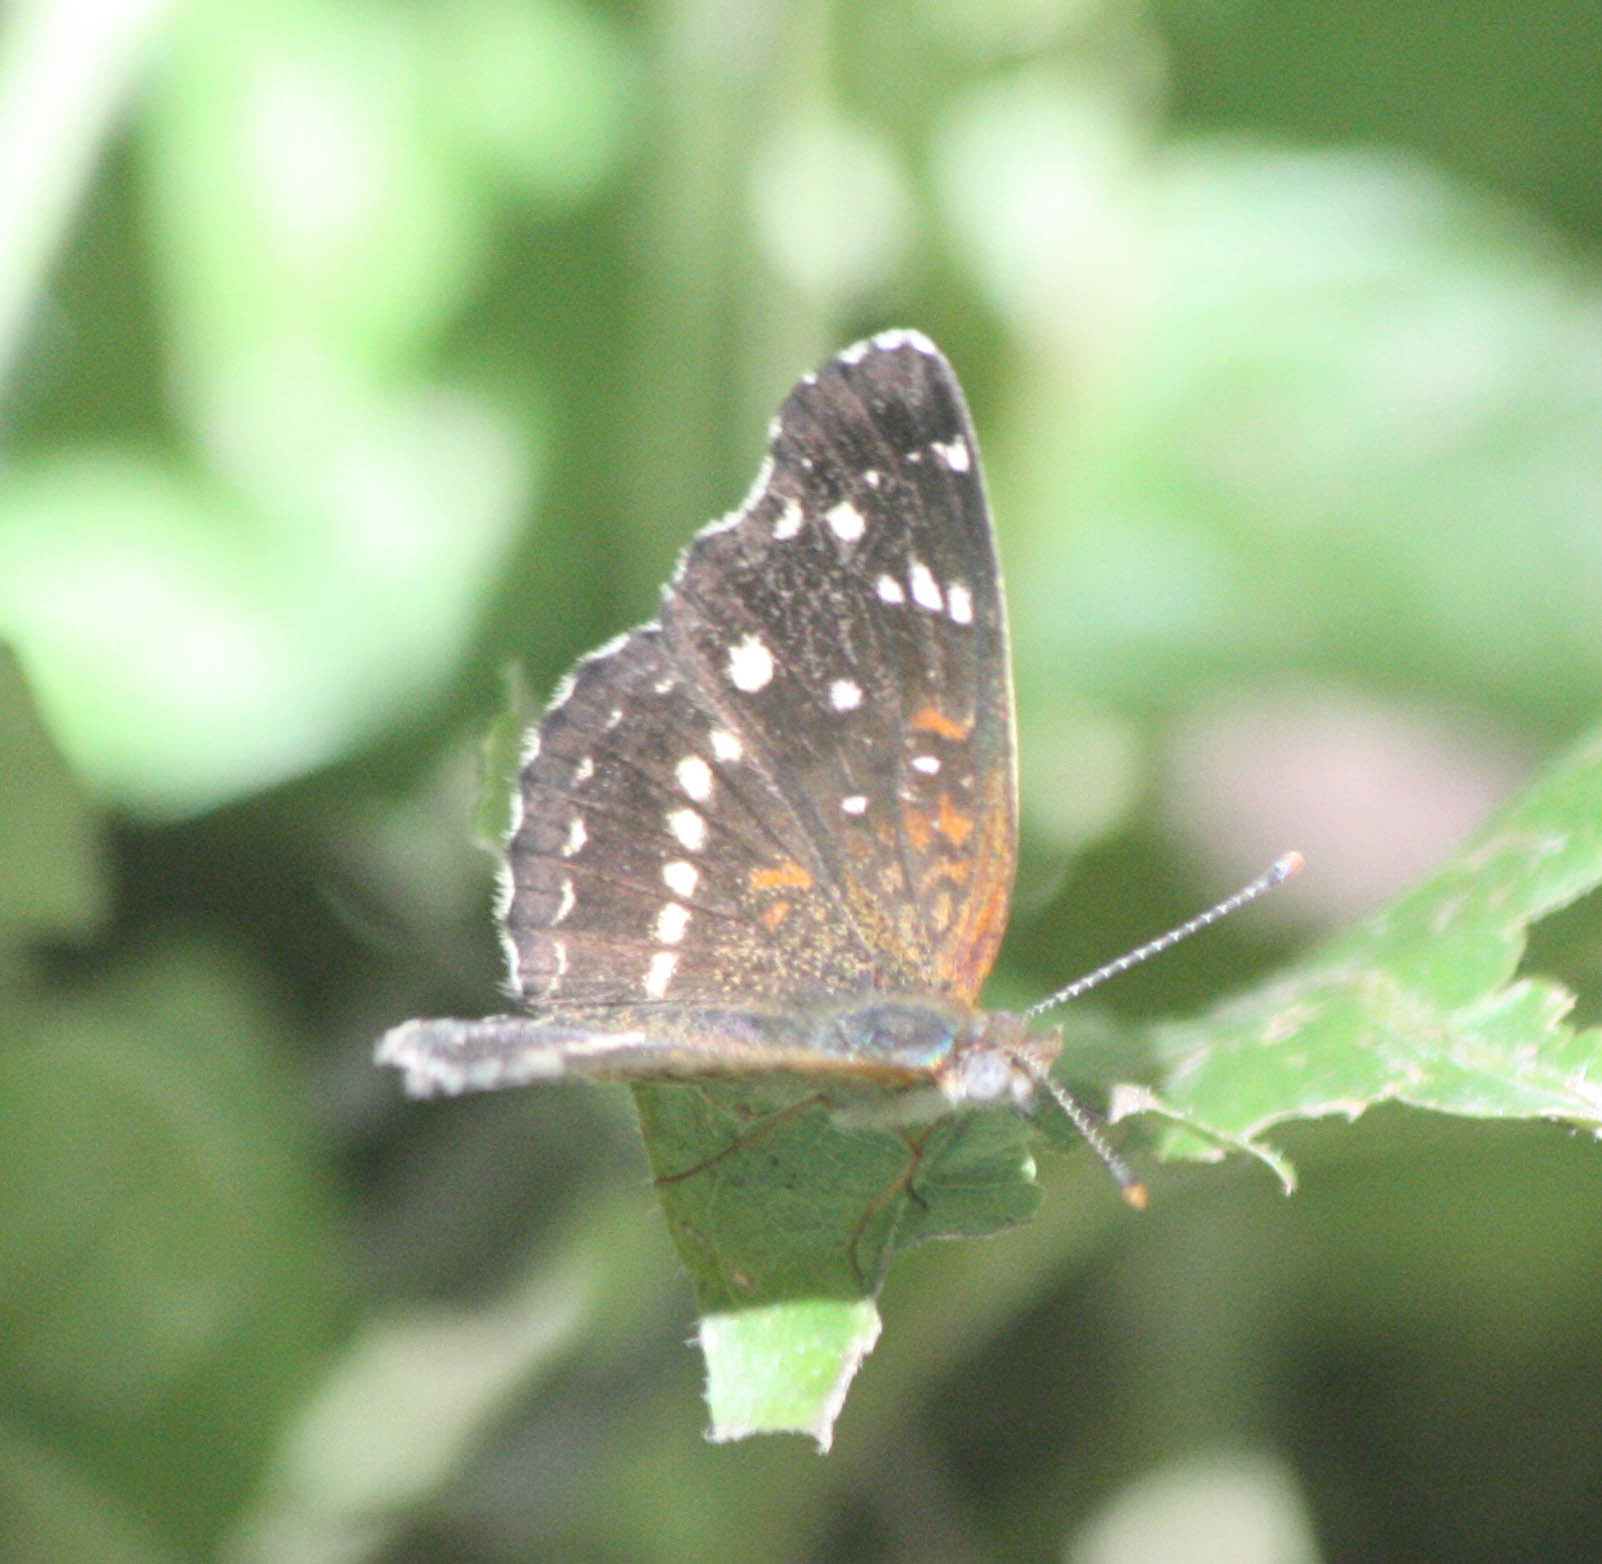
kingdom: Animalia
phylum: Arthropoda
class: Insecta
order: Lepidoptera
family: Nymphalidae
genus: Anthanassa
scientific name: Anthanassa texana
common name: Texan crescent
